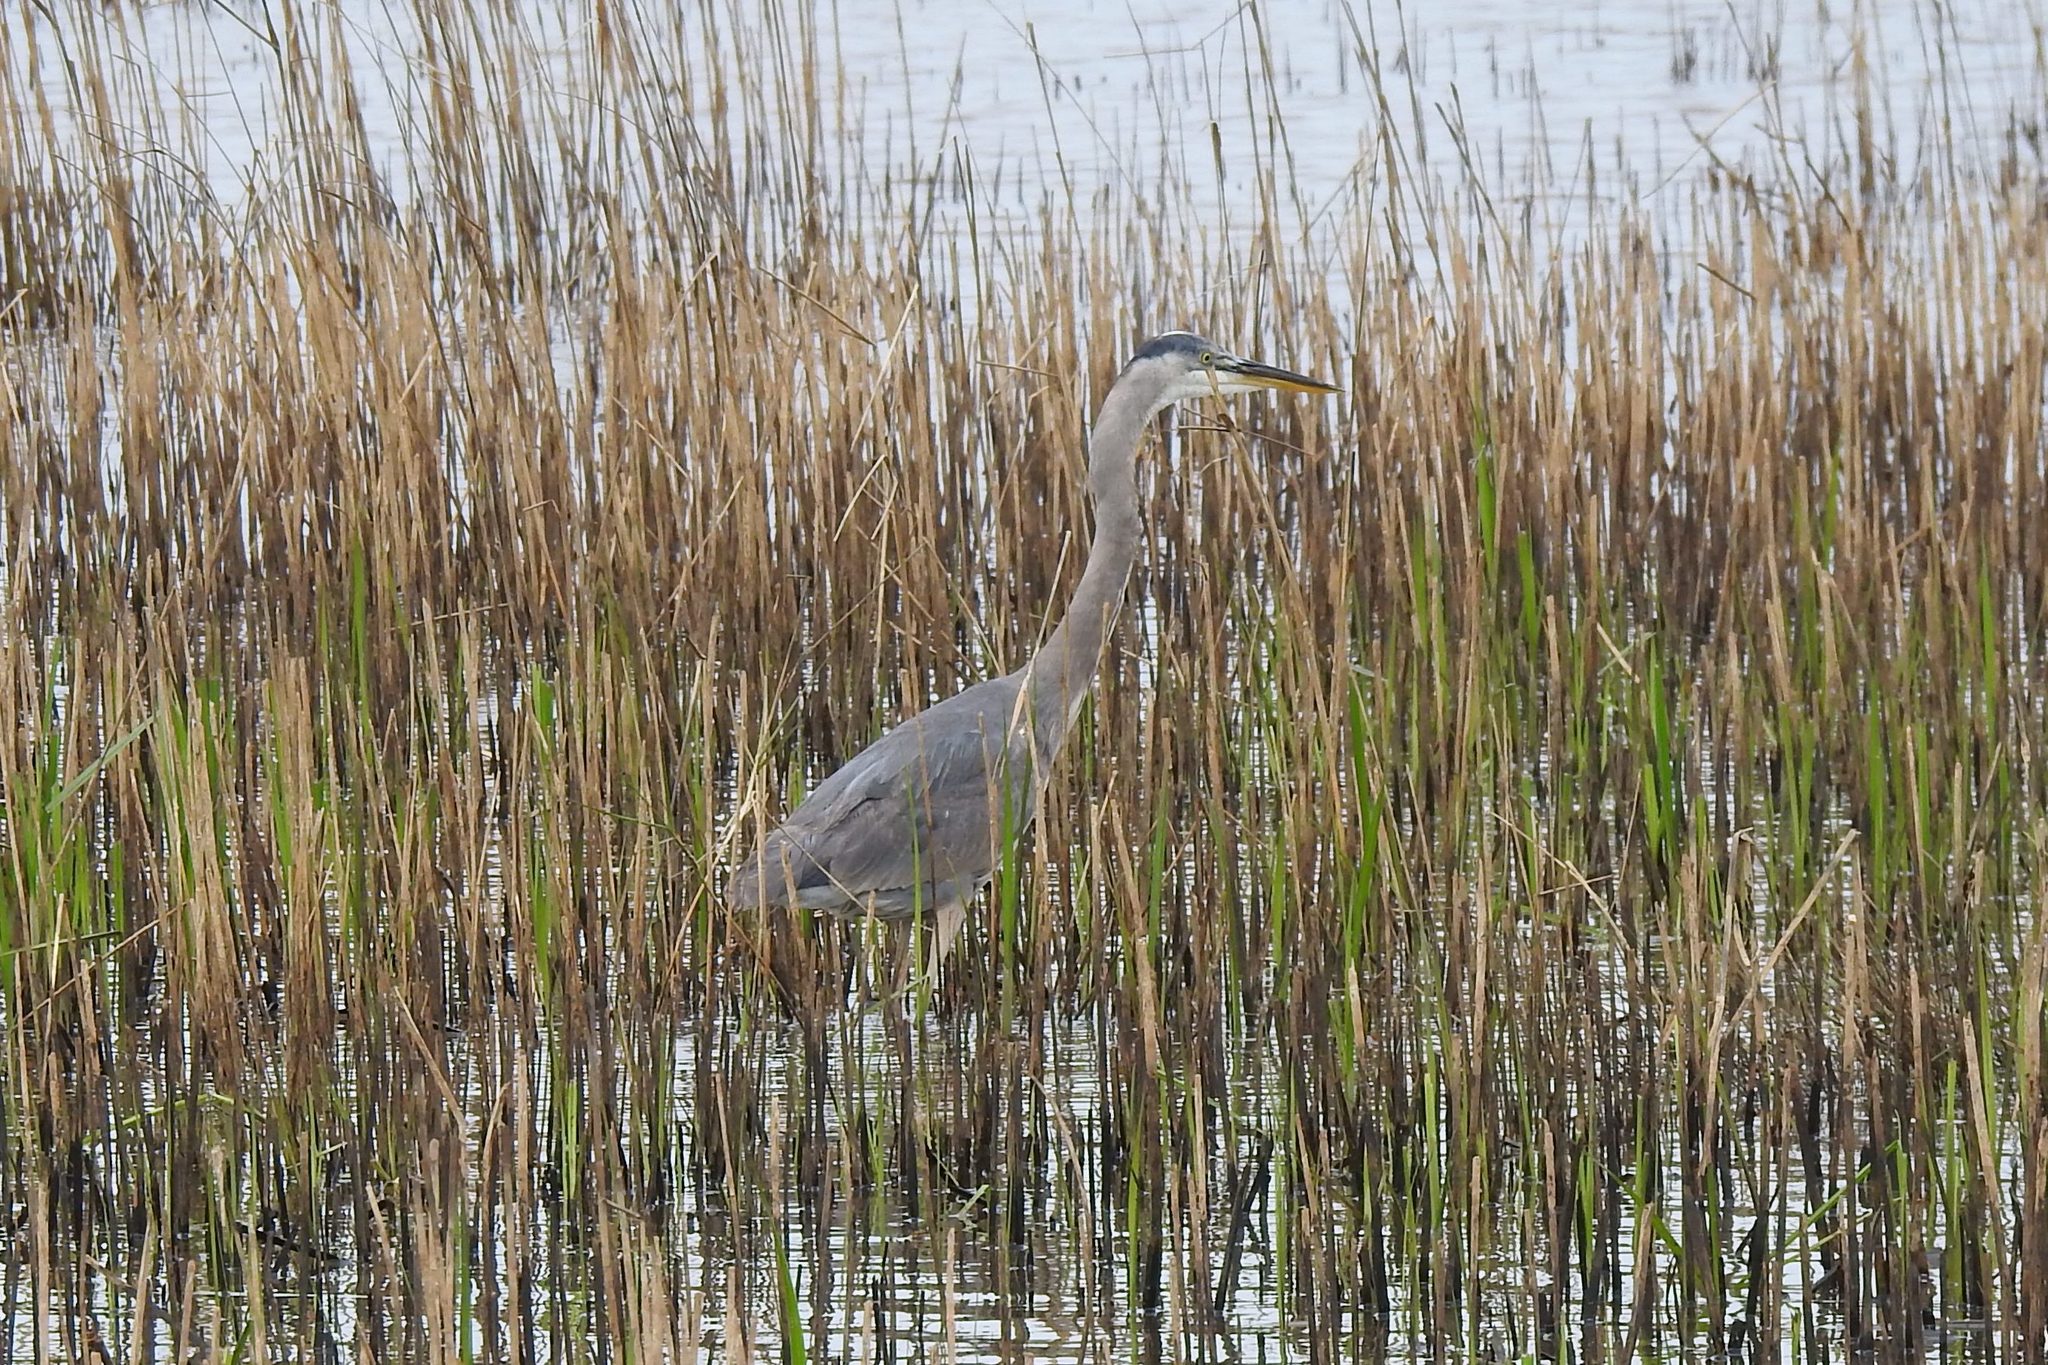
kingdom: Animalia
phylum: Chordata
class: Aves
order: Pelecaniformes
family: Ardeidae
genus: Ardea
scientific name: Ardea herodias
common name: Great blue heron
